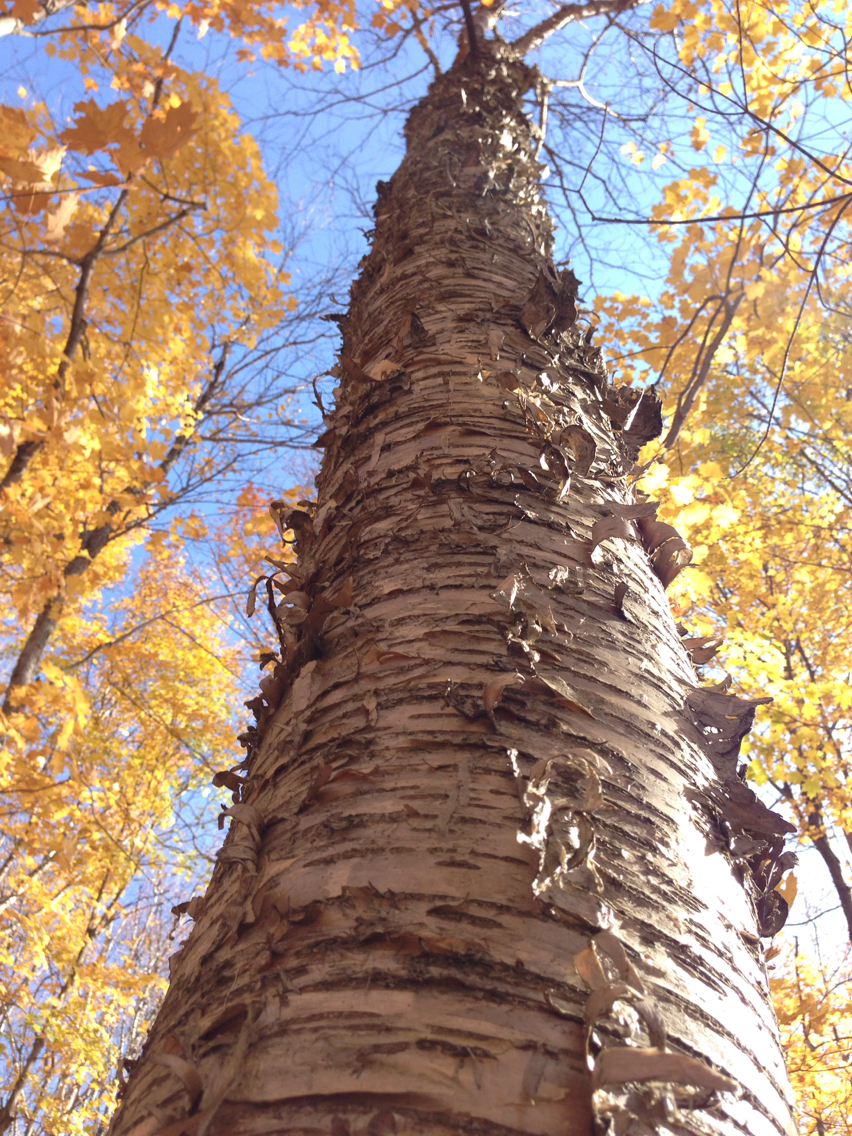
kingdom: Plantae
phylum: Tracheophyta
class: Magnoliopsida
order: Fagales
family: Betulaceae
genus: Betula
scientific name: Betula alleghaniensis
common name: Yellow birch
